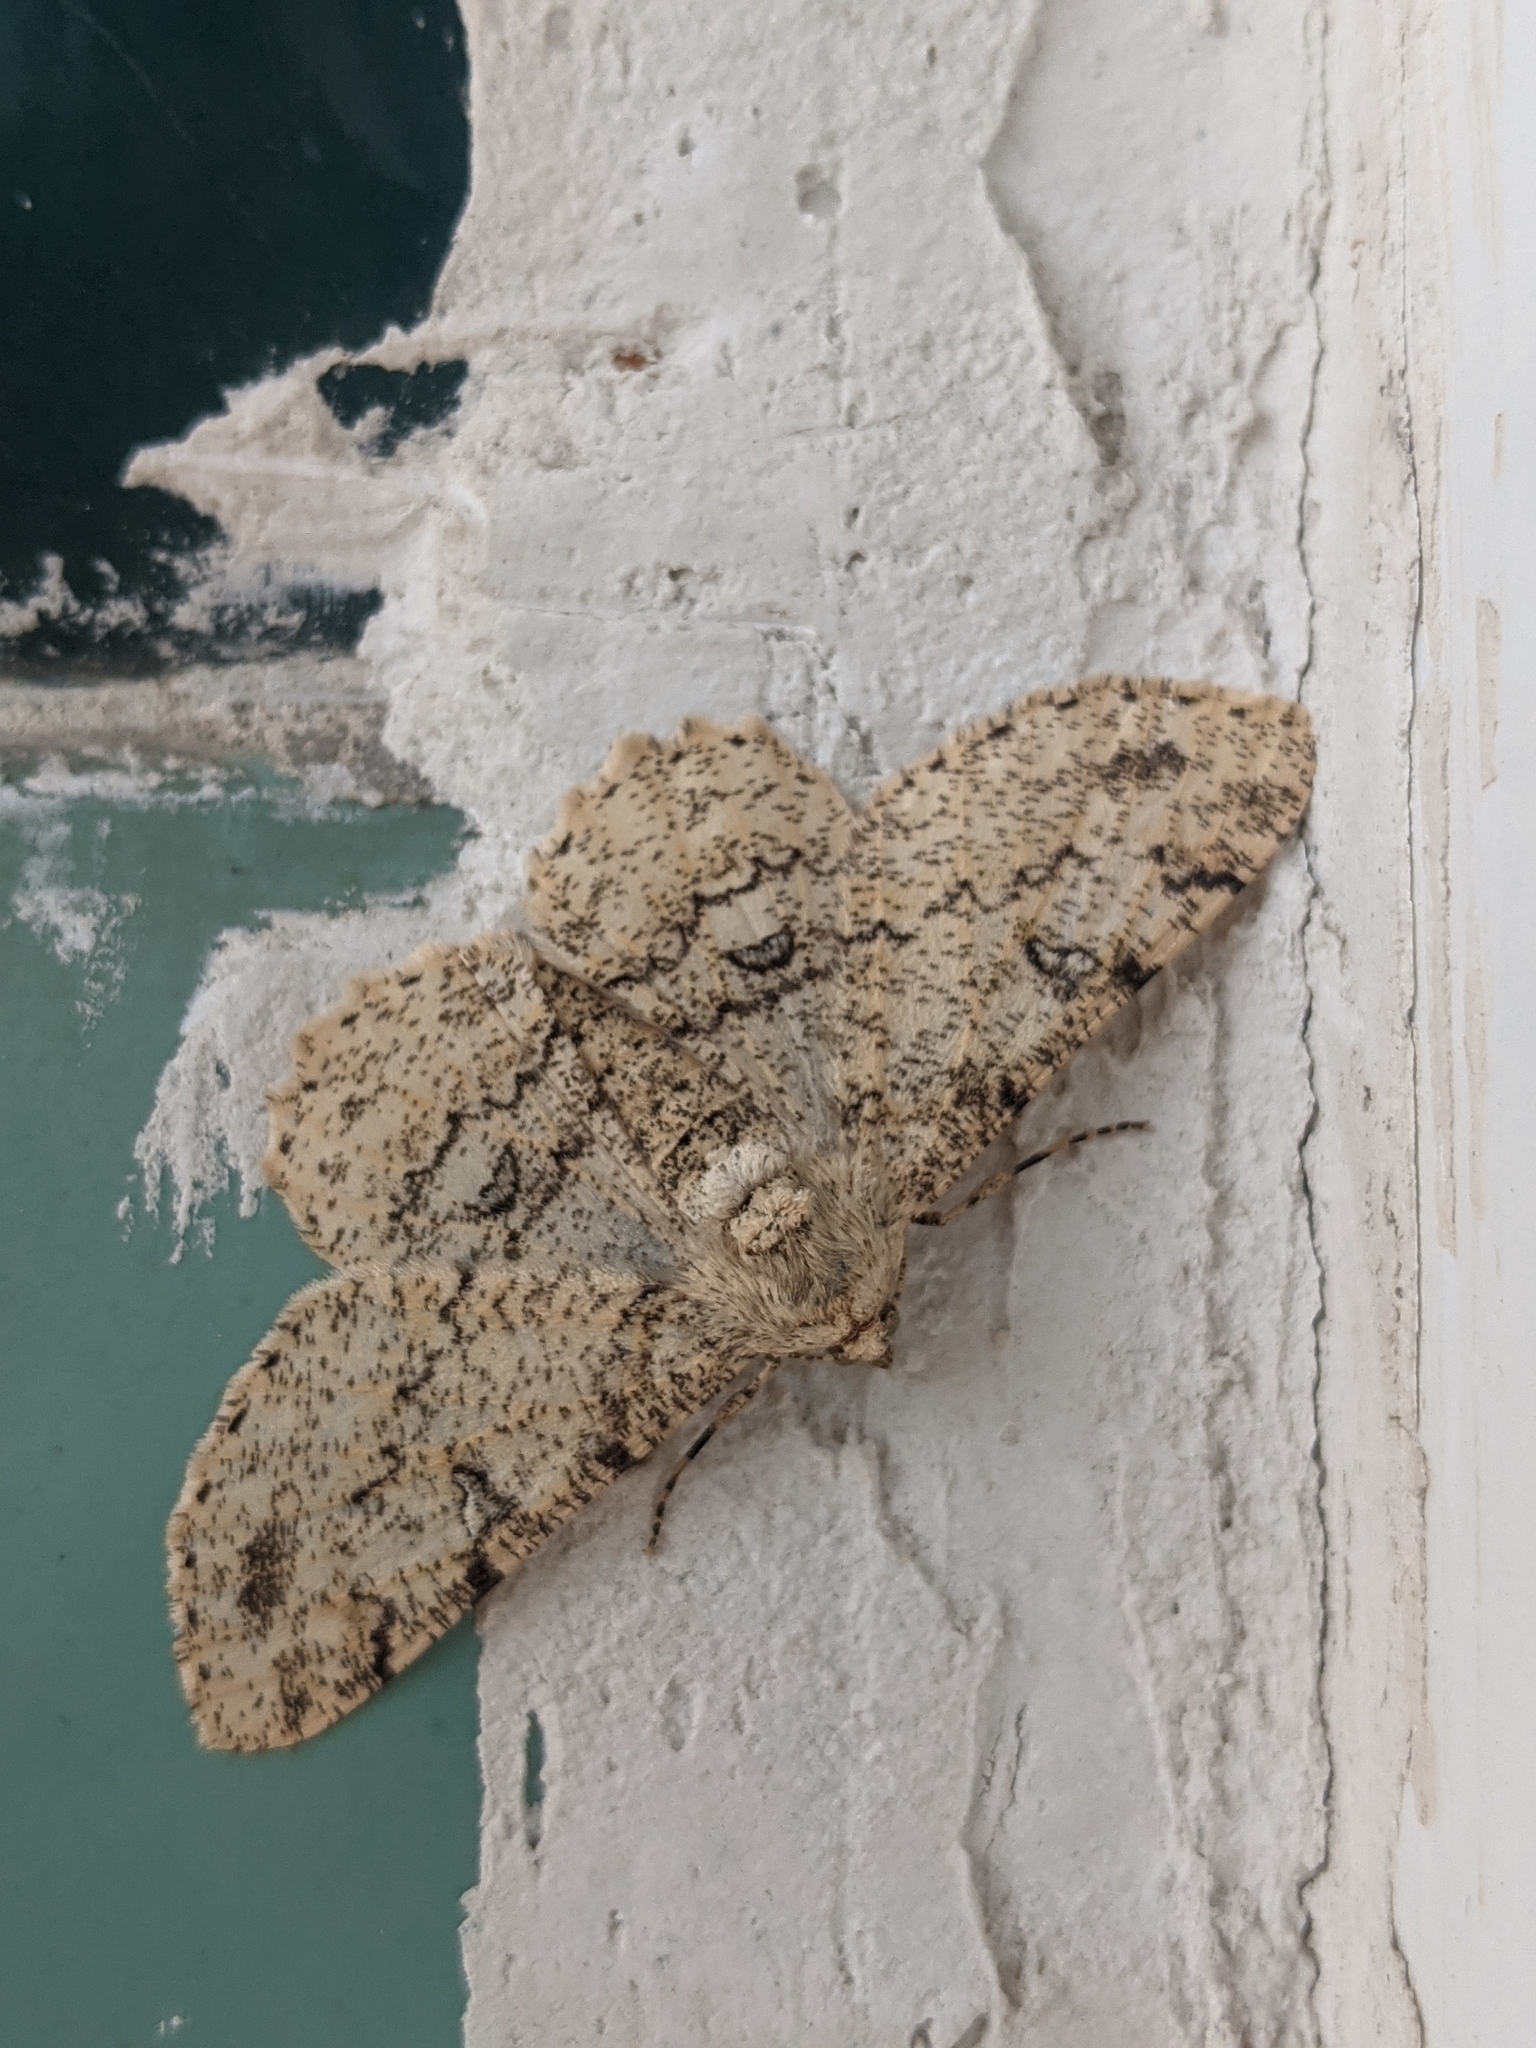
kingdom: Animalia
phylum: Arthropoda
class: Insecta
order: Lepidoptera
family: Geometridae
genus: Ascotis
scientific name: Ascotis selenaria
